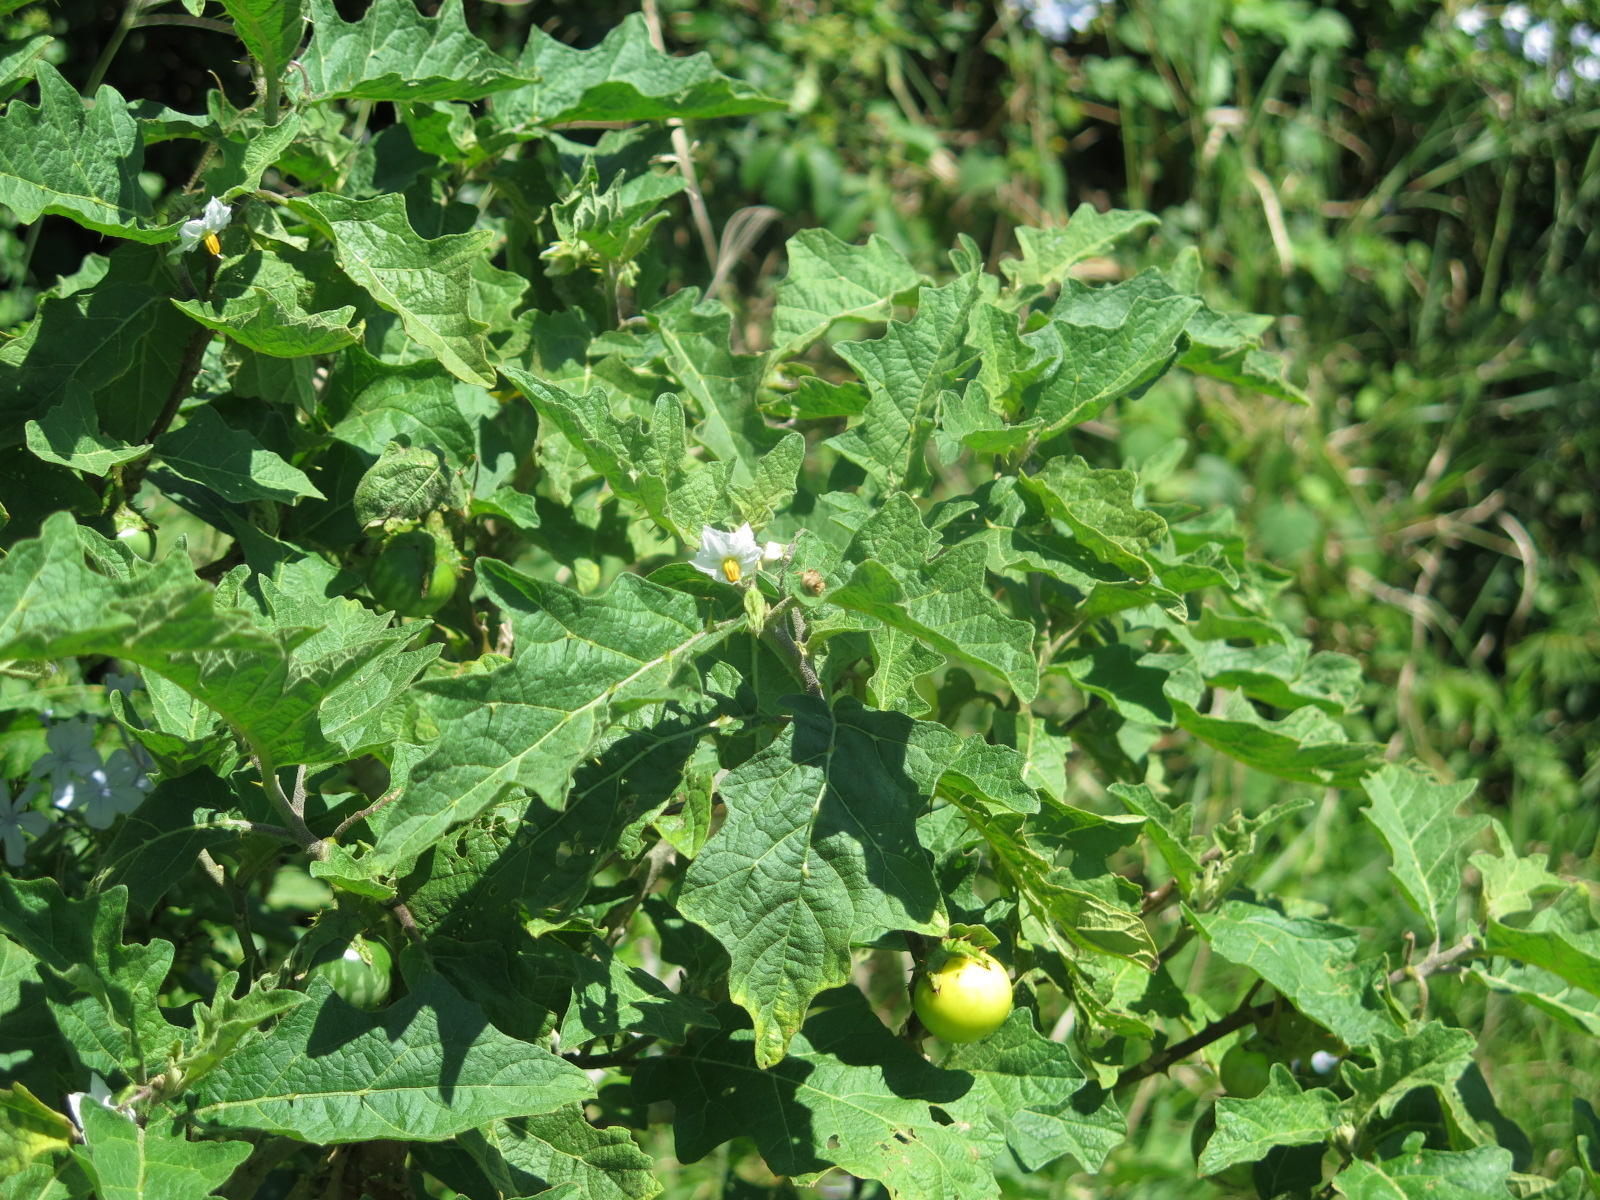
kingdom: Plantae
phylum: Tracheophyta
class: Magnoliopsida
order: Solanales
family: Solanaceae
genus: Solanum
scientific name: Solanum umtuma
